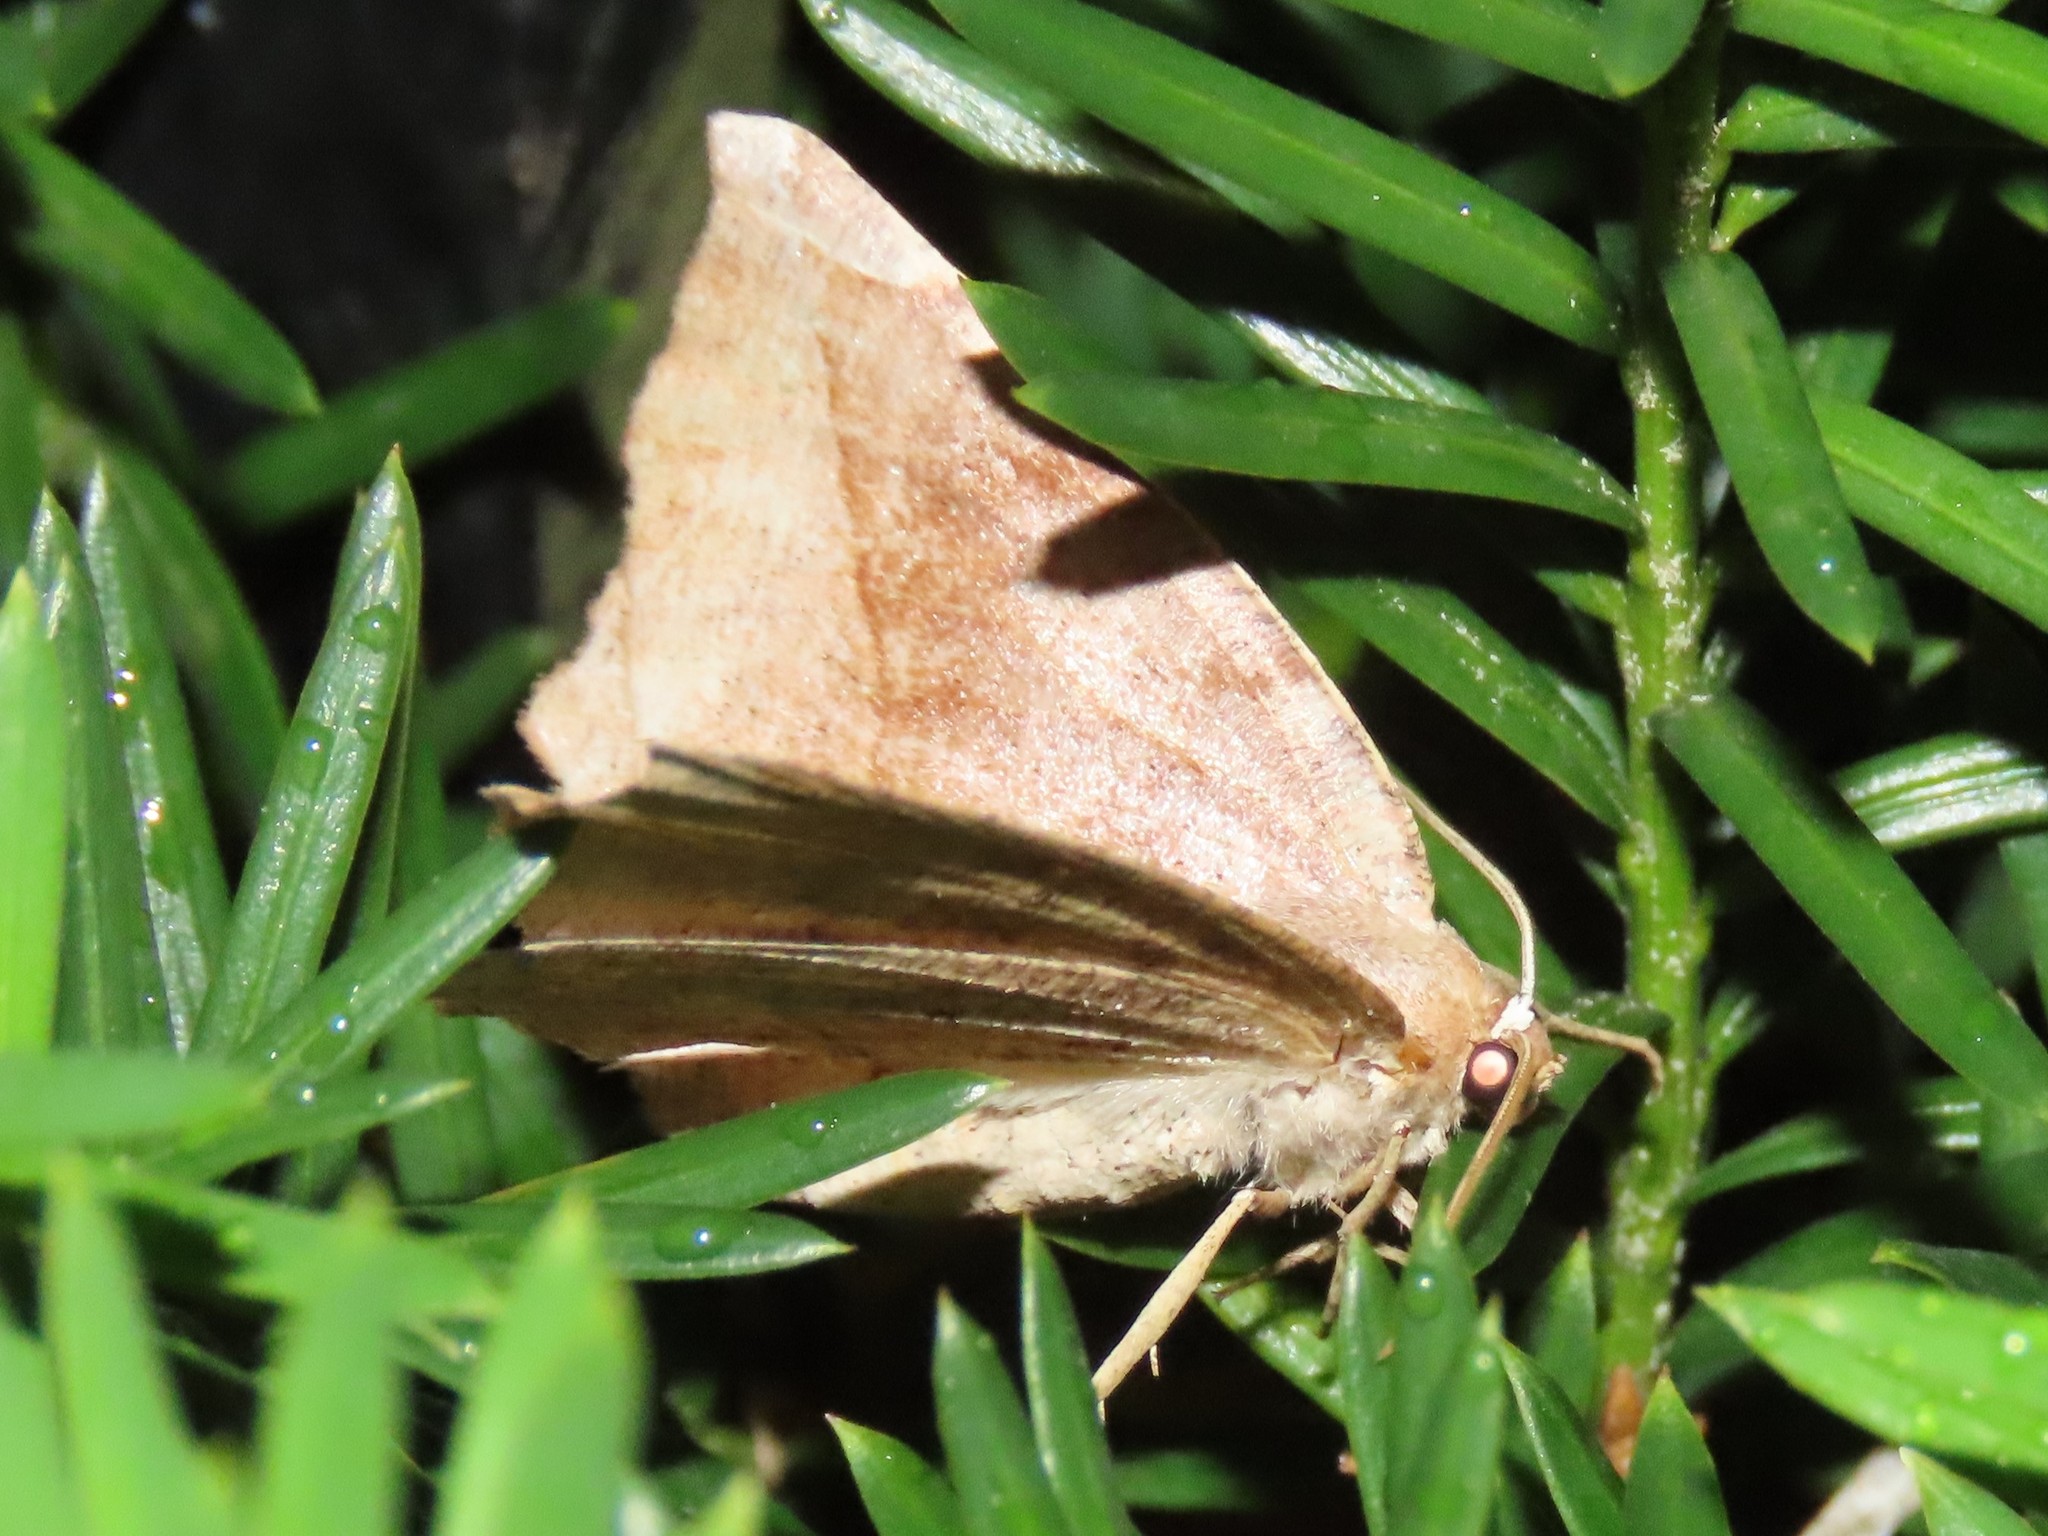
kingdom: Animalia
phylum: Arthropoda
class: Insecta
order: Lepidoptera
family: Geometridae
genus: Eutrapela
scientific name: Eutrapela clemataria
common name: Curved-toothed geometer
